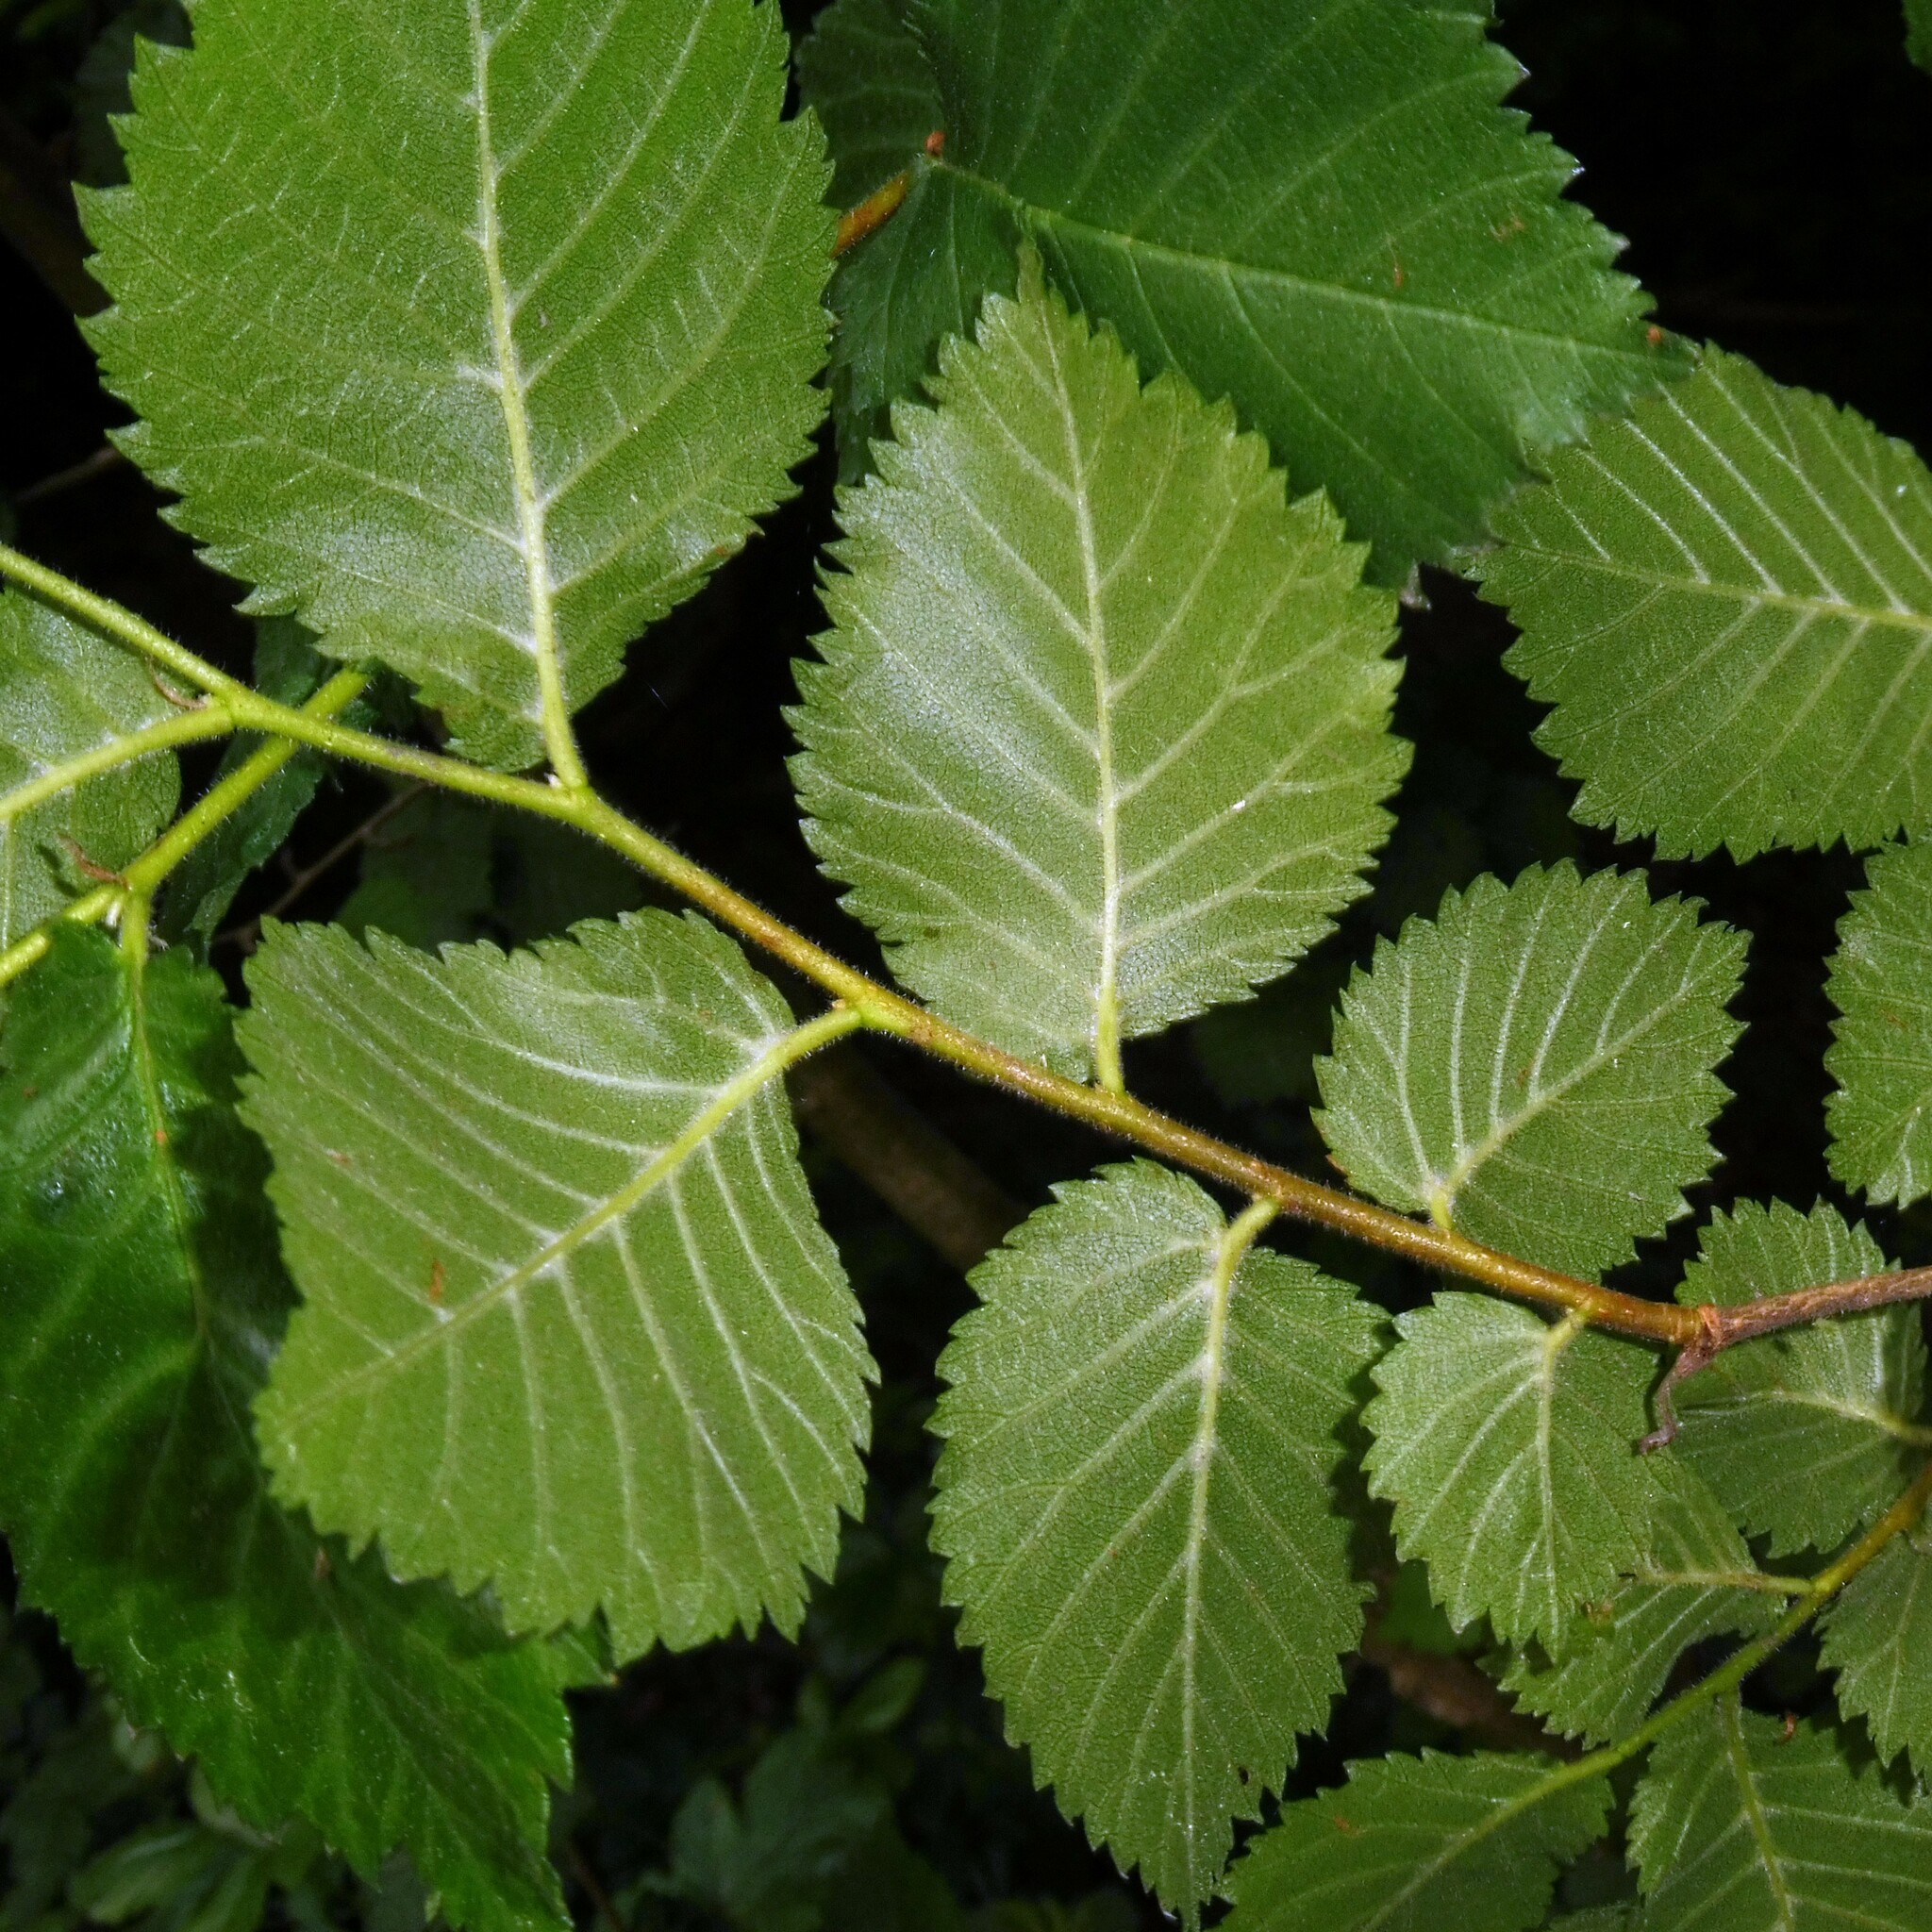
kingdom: Plantae
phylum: Tracheophyta
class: Magnoliopsida
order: Rosales
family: Ulmaceae
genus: Ulmus
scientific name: Ulmus minor
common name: Small-leaved elm
